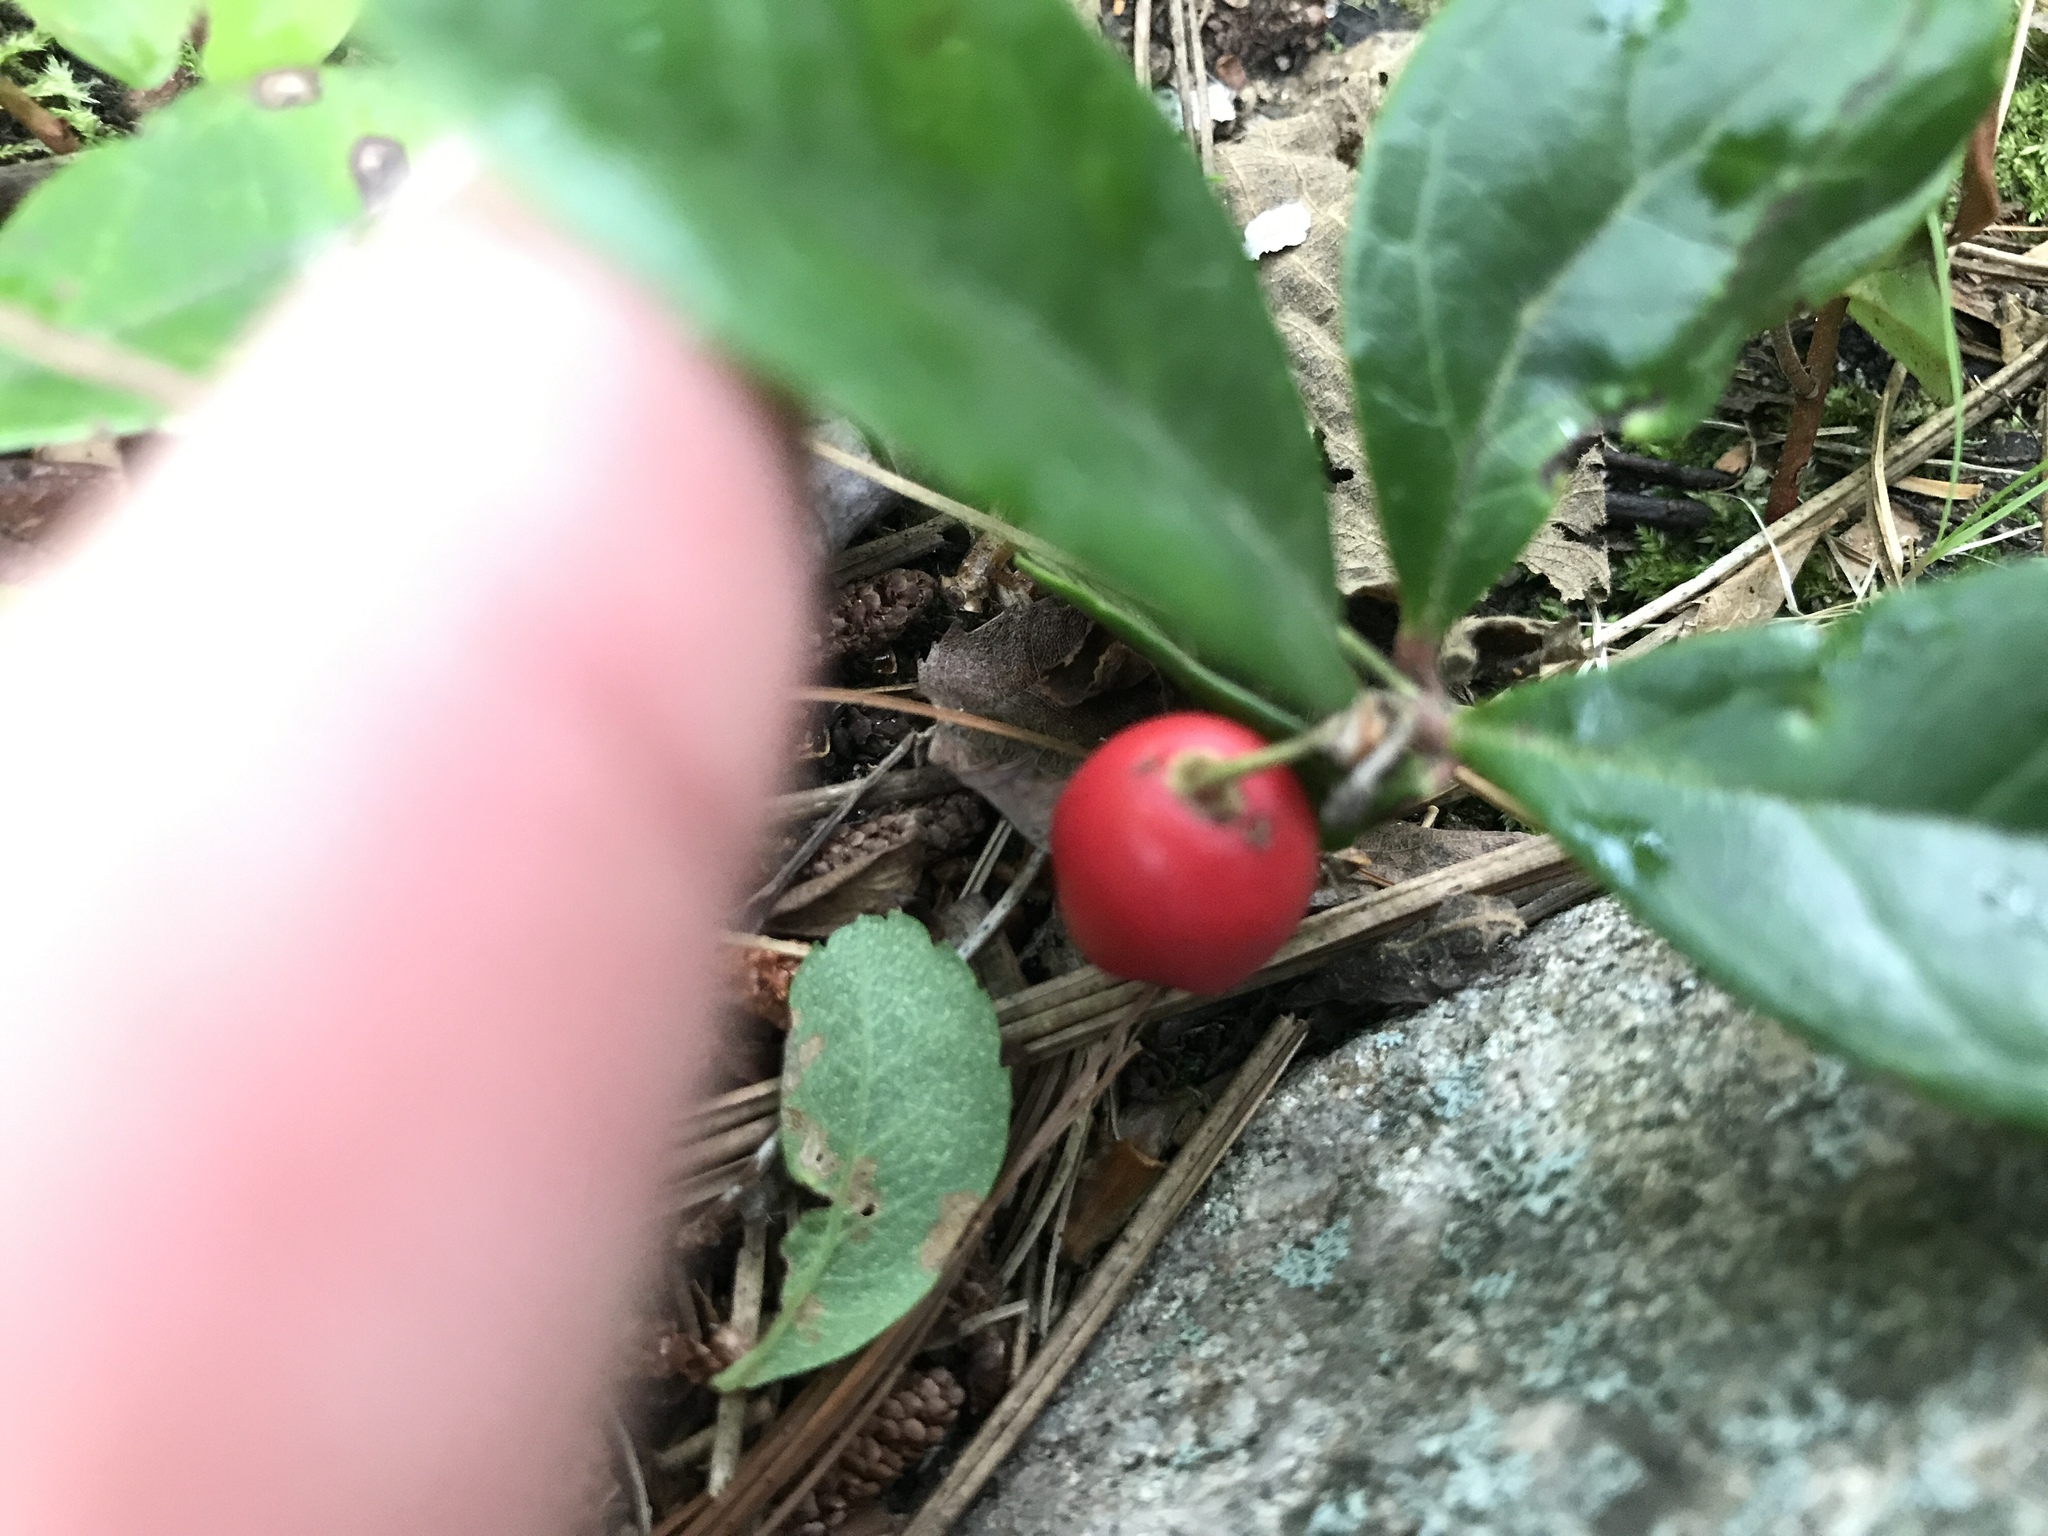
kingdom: Plantae
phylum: Tracheophyta
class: Magnoliopsida
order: Ericales
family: Ericaceae
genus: Gaultheria
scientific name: Gaultheria procumbens
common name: Checkerberry
